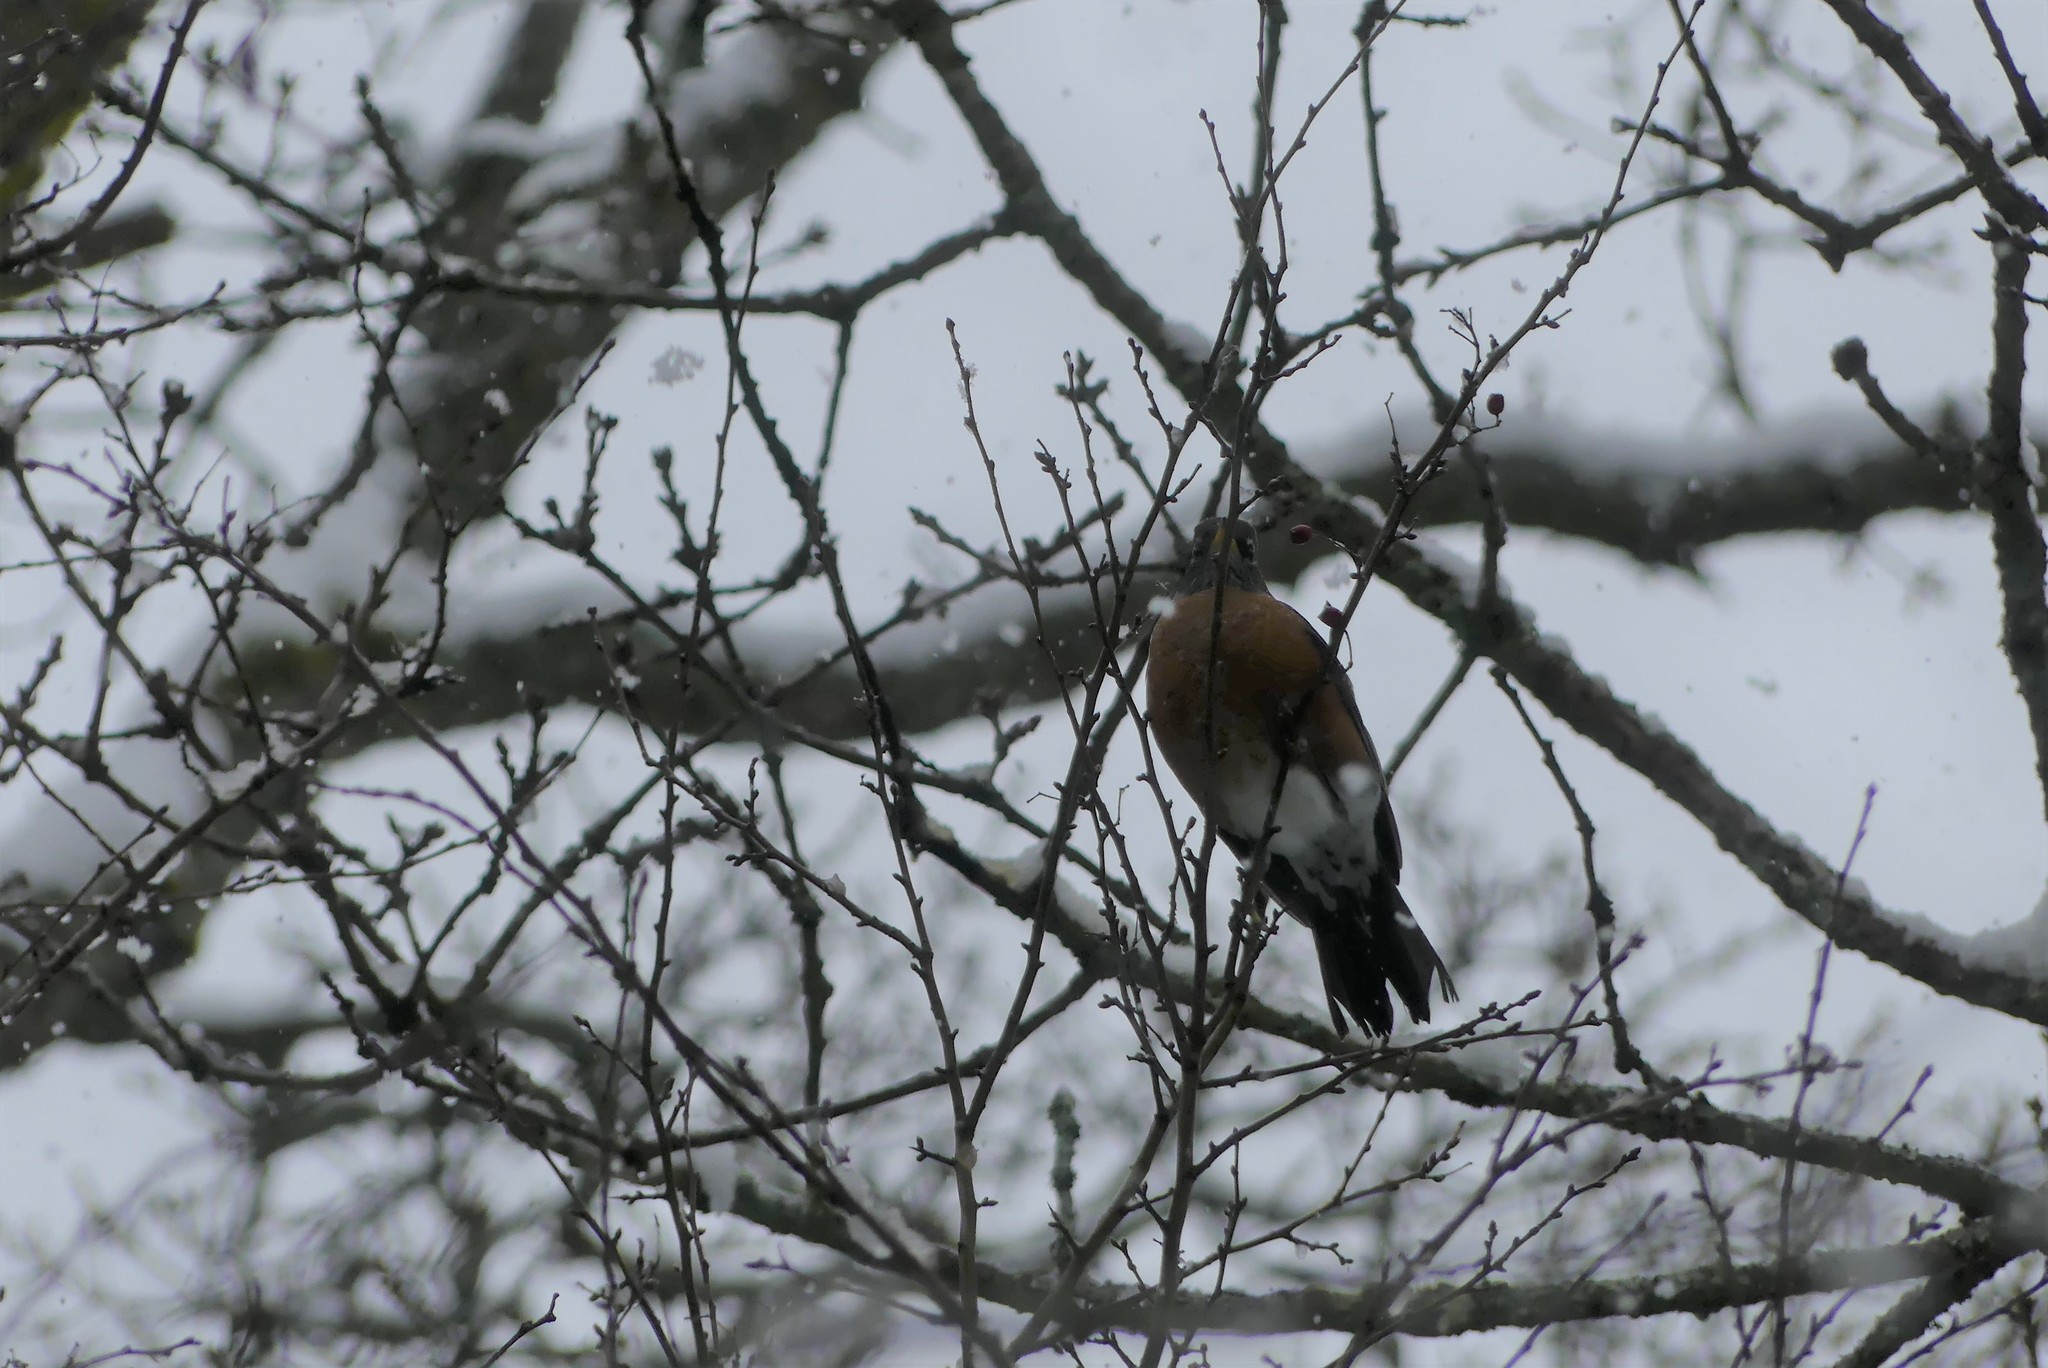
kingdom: Animalia
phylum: Chordata
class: Aves
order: Passeriformes
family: Turdidae
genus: Turdus
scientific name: Turdus migratorius
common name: American robin
